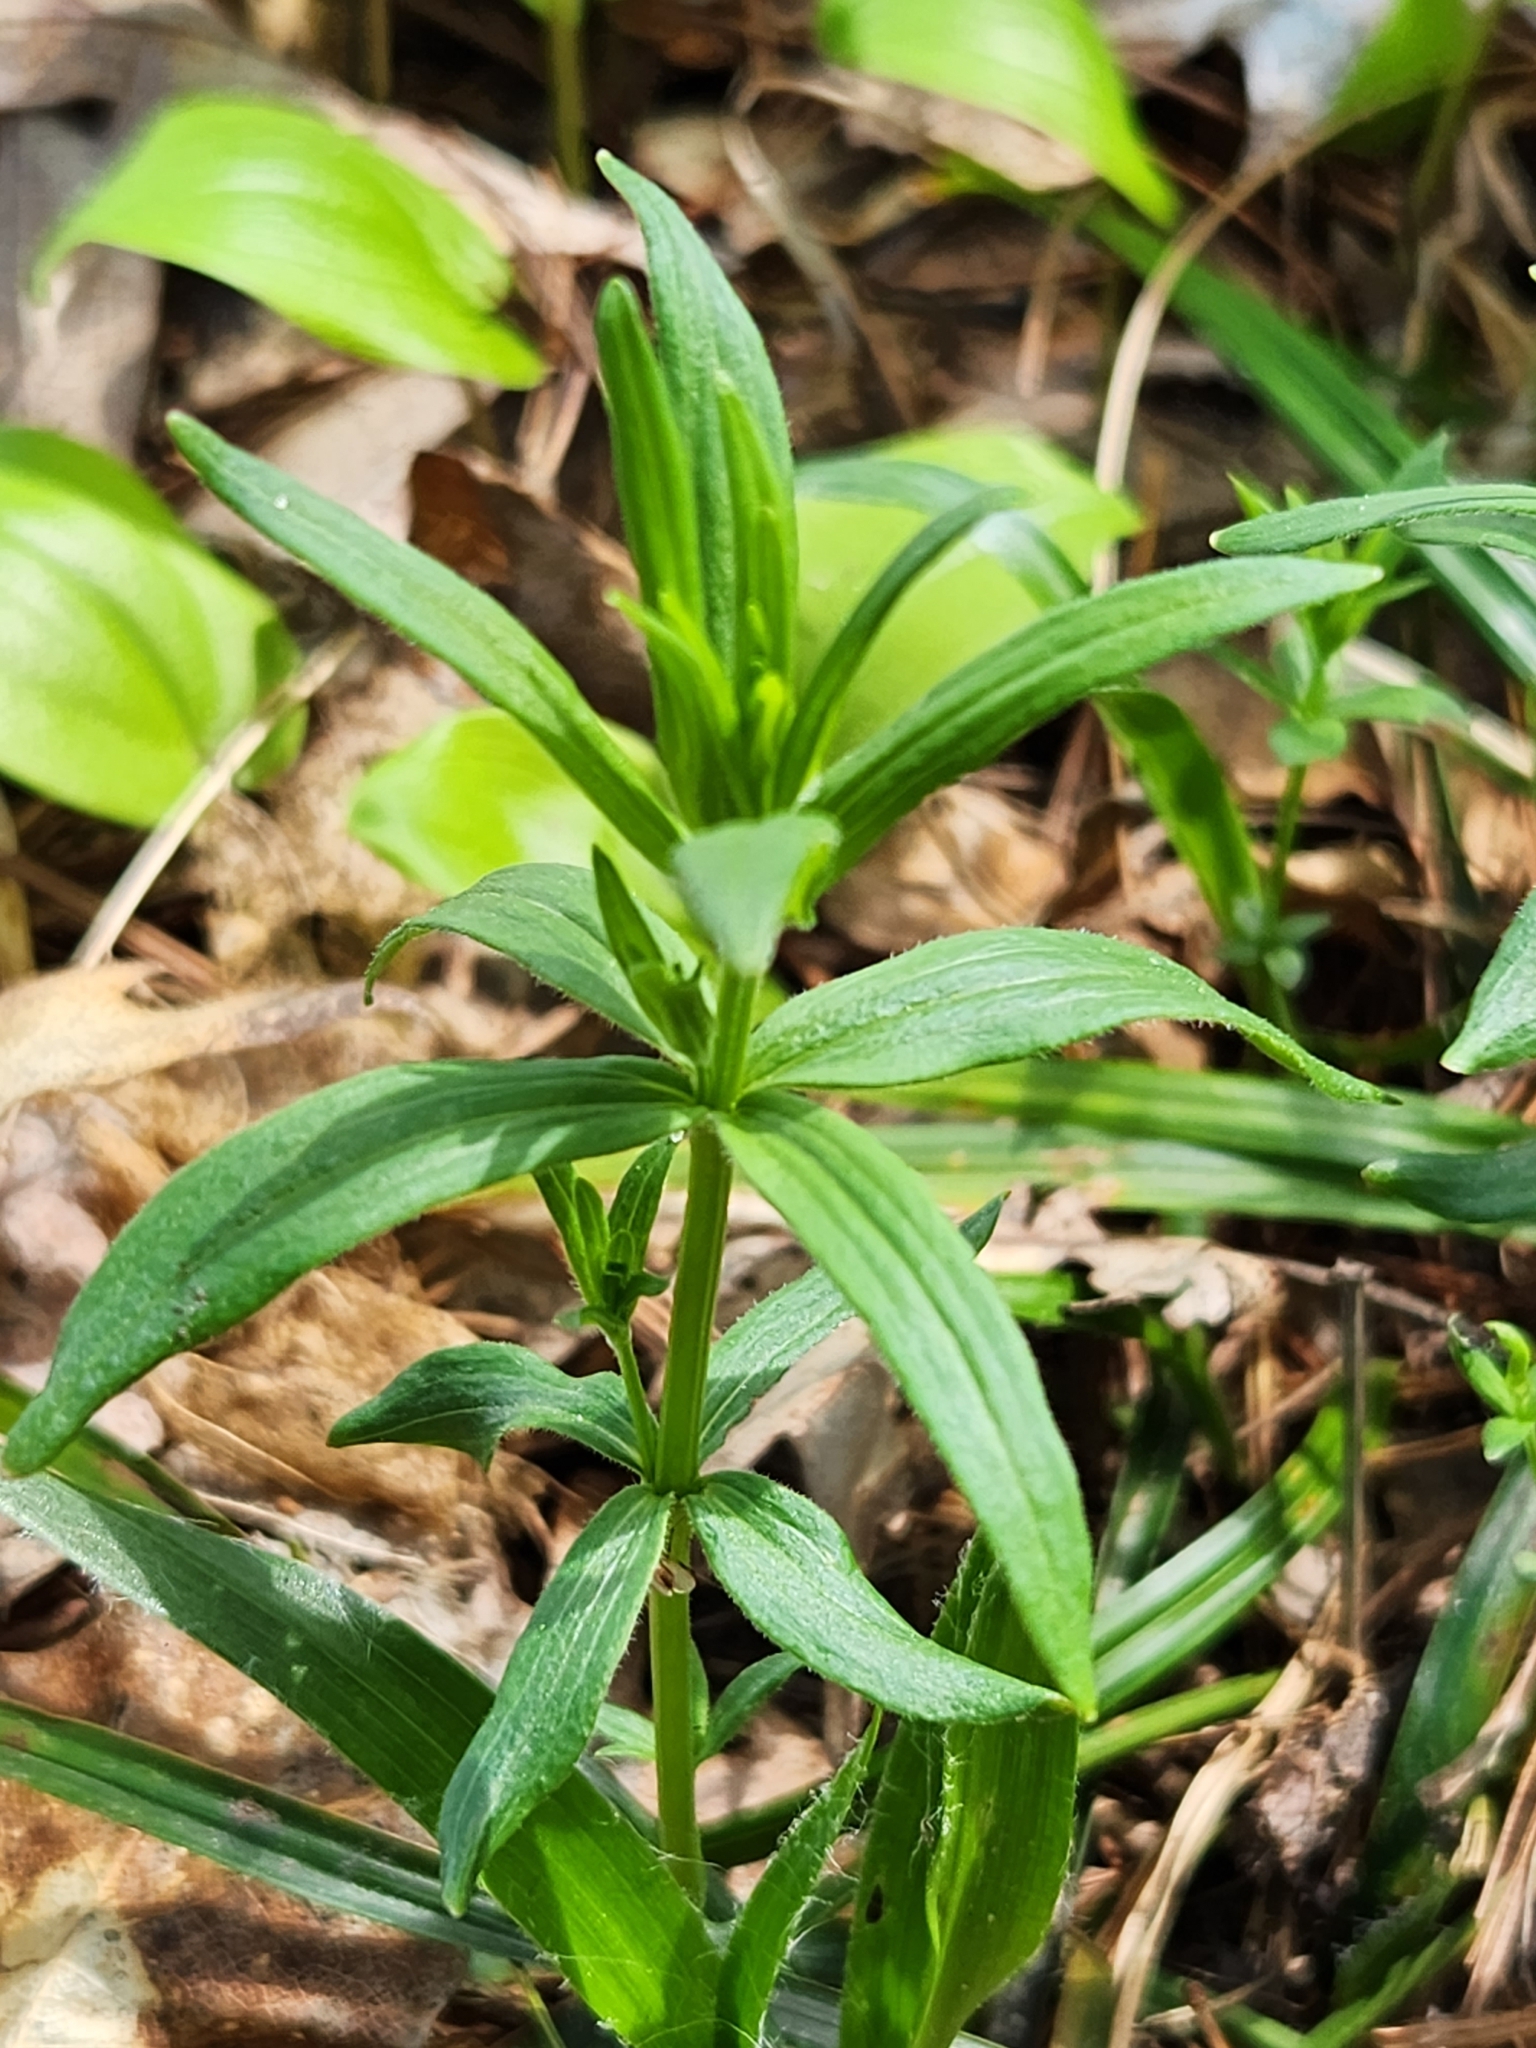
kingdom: Plantae
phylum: Tracheophyta
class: Magnoliopsida
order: Gentianales
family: Rubiaceae
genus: Galium
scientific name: Galium boreale
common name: Northern bedstraw
